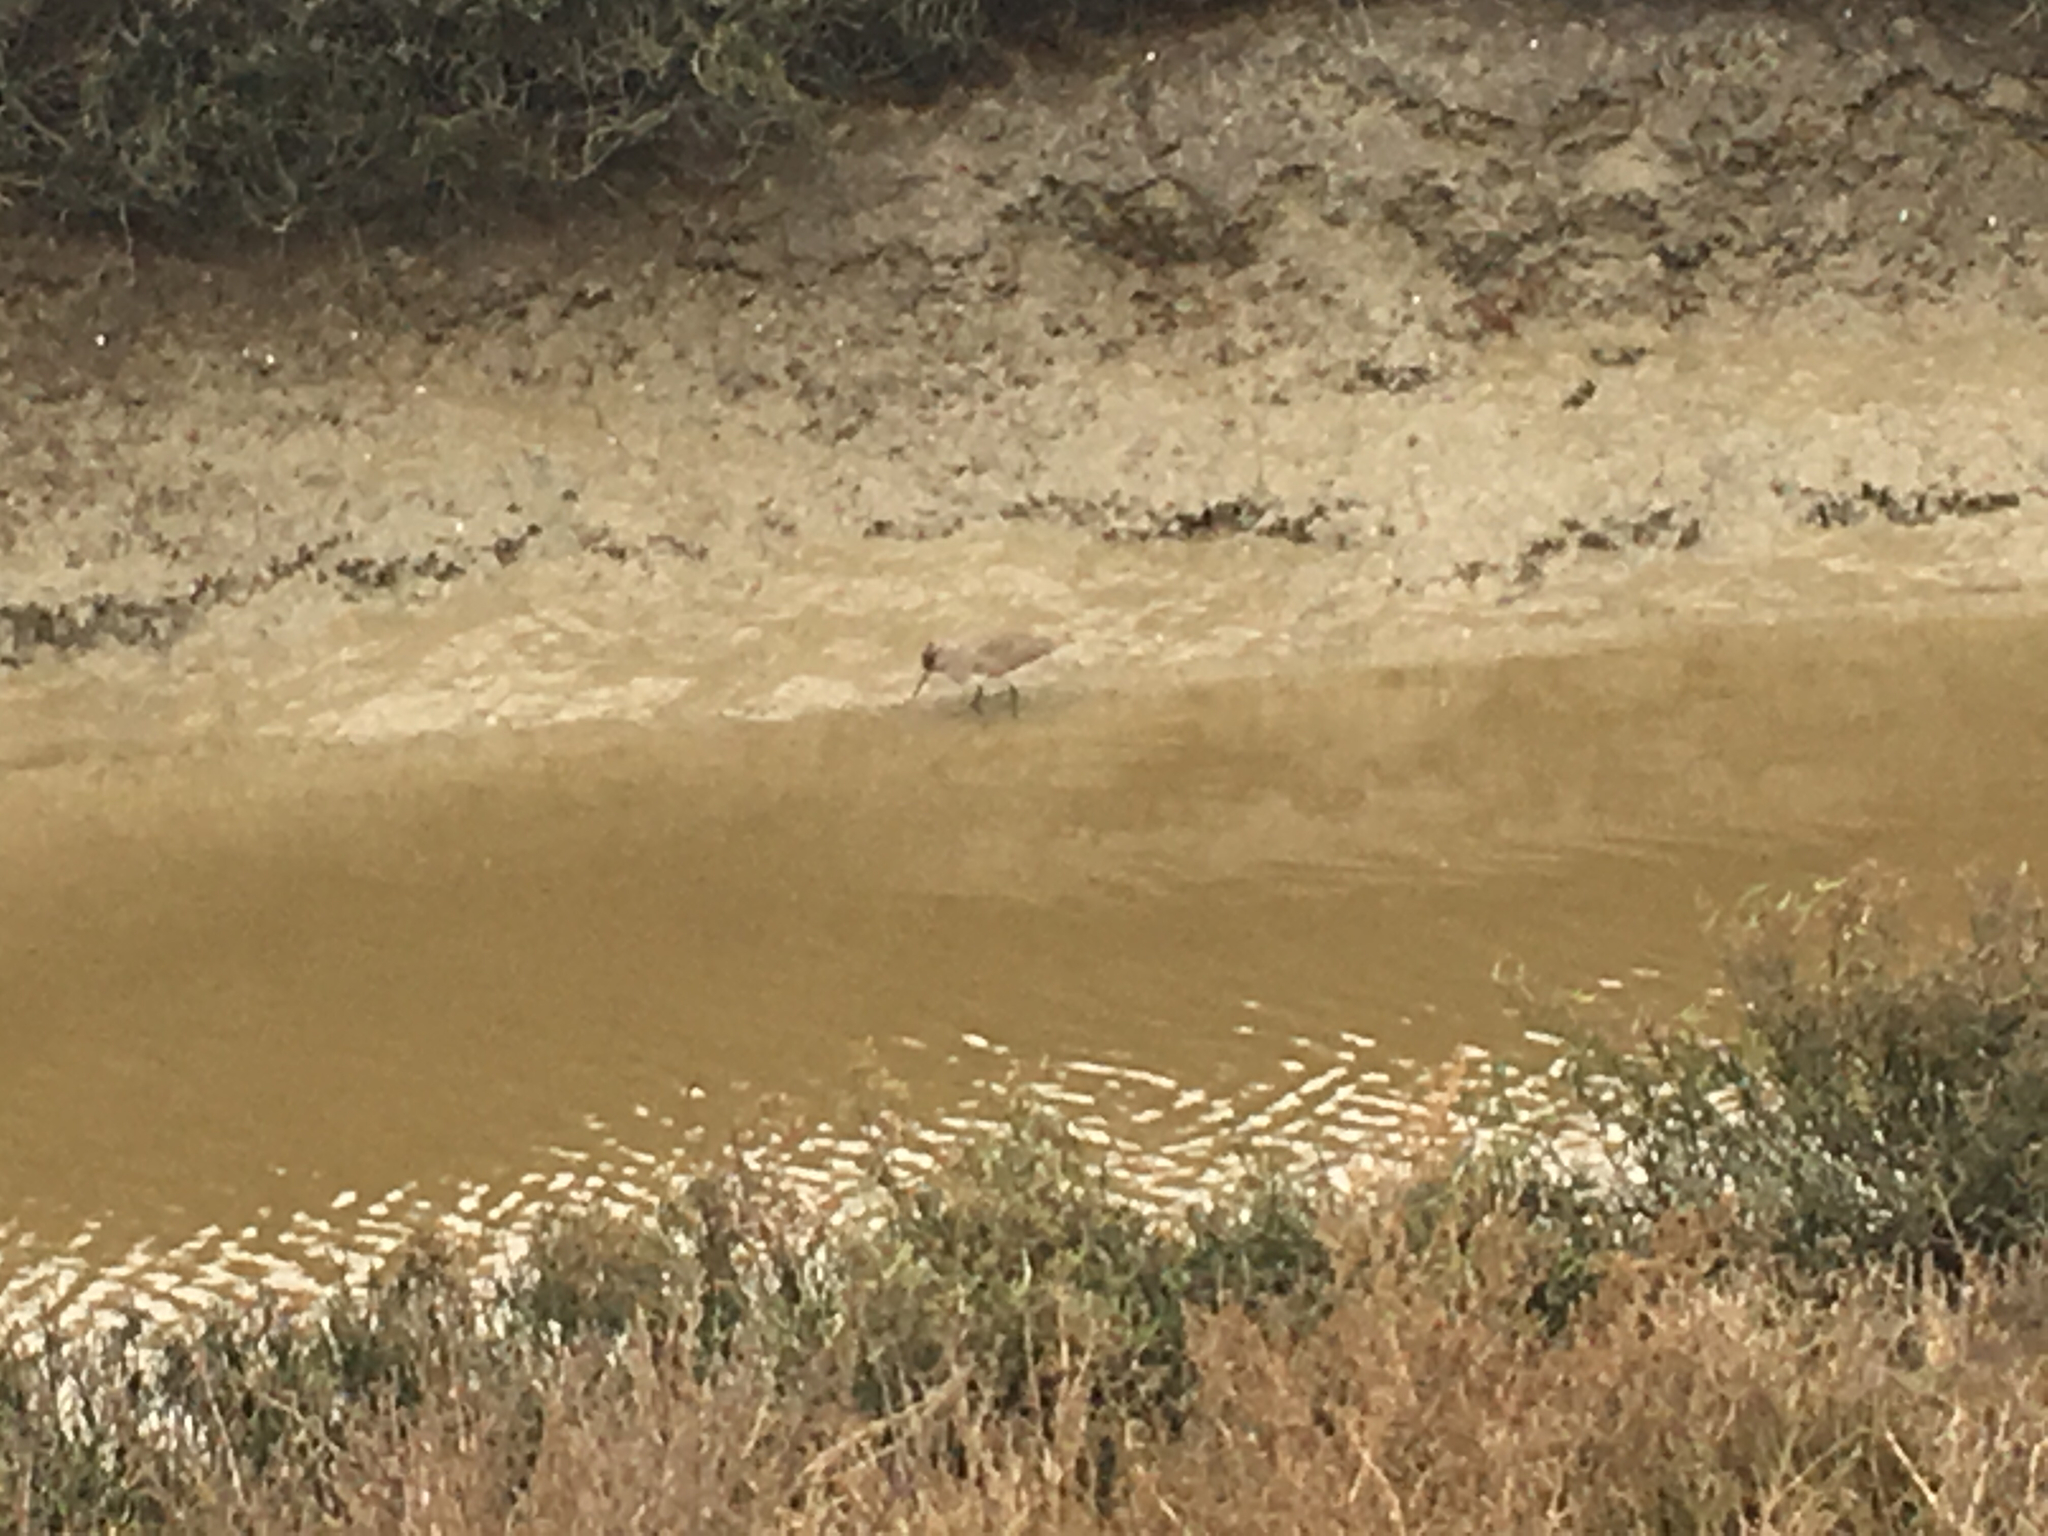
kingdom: Animalia
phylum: Chordata
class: Aves
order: Charadriiformes
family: Scolopacidae
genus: Tringa
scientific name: Tringa semipalmata
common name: Willet
